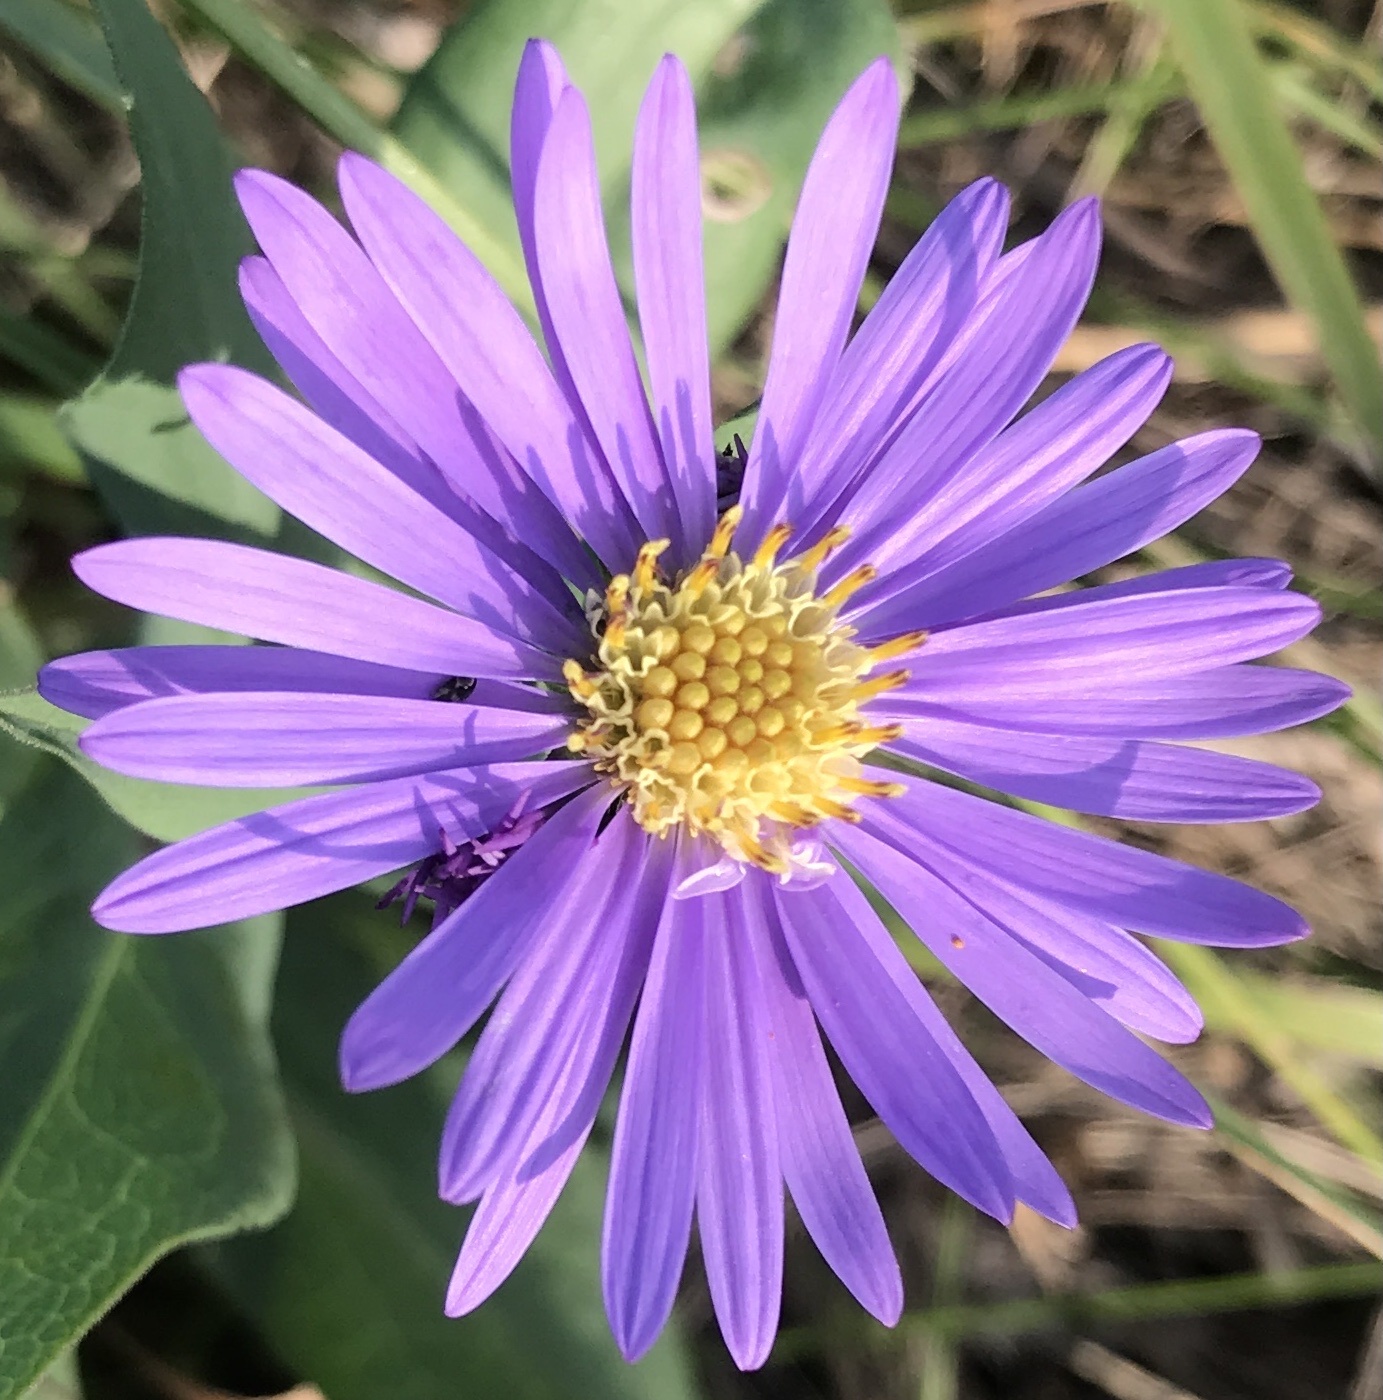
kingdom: Plantae
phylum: Tracheophyta
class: Magnoliopsida
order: Asterales
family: Asteraceae
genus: Symphyotrichum
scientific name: Symphyotrichum oblongifolium
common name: Aromatic aster
